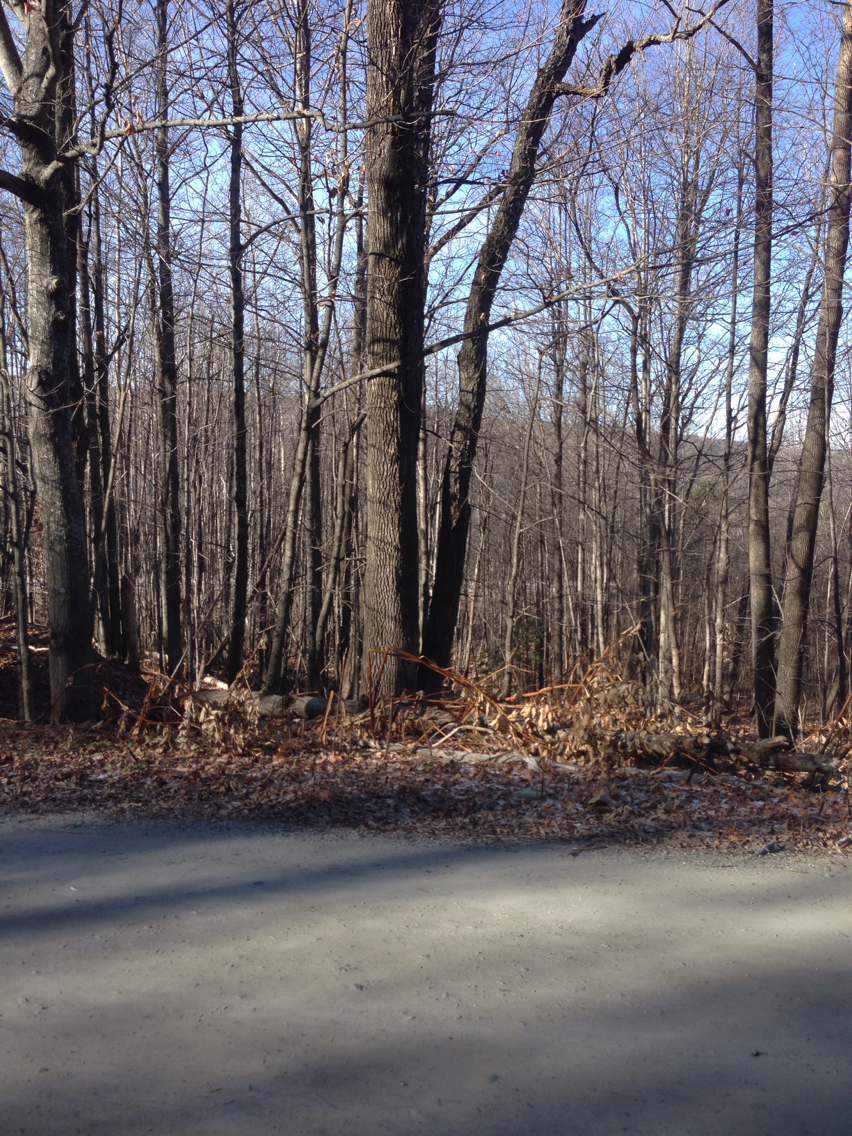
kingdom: Plantae
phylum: Tracheophyta
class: Magnoliopsida
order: Lamiales
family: Oleaceae
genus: Fraxinus
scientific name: Fraxinus americana
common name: White ash
